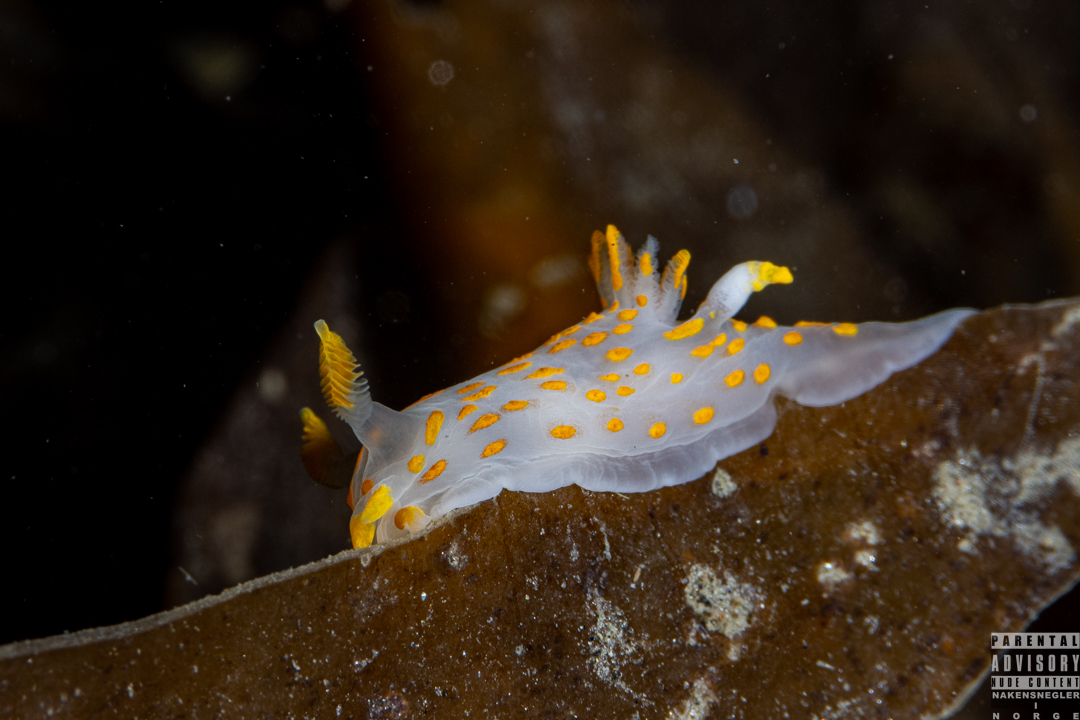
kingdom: Animalia
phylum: Mollusca
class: Gastropoda
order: Nudibranchia
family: Polyceridae
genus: Polycera
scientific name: Polycera quadrilineata
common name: Four-striped polycera
